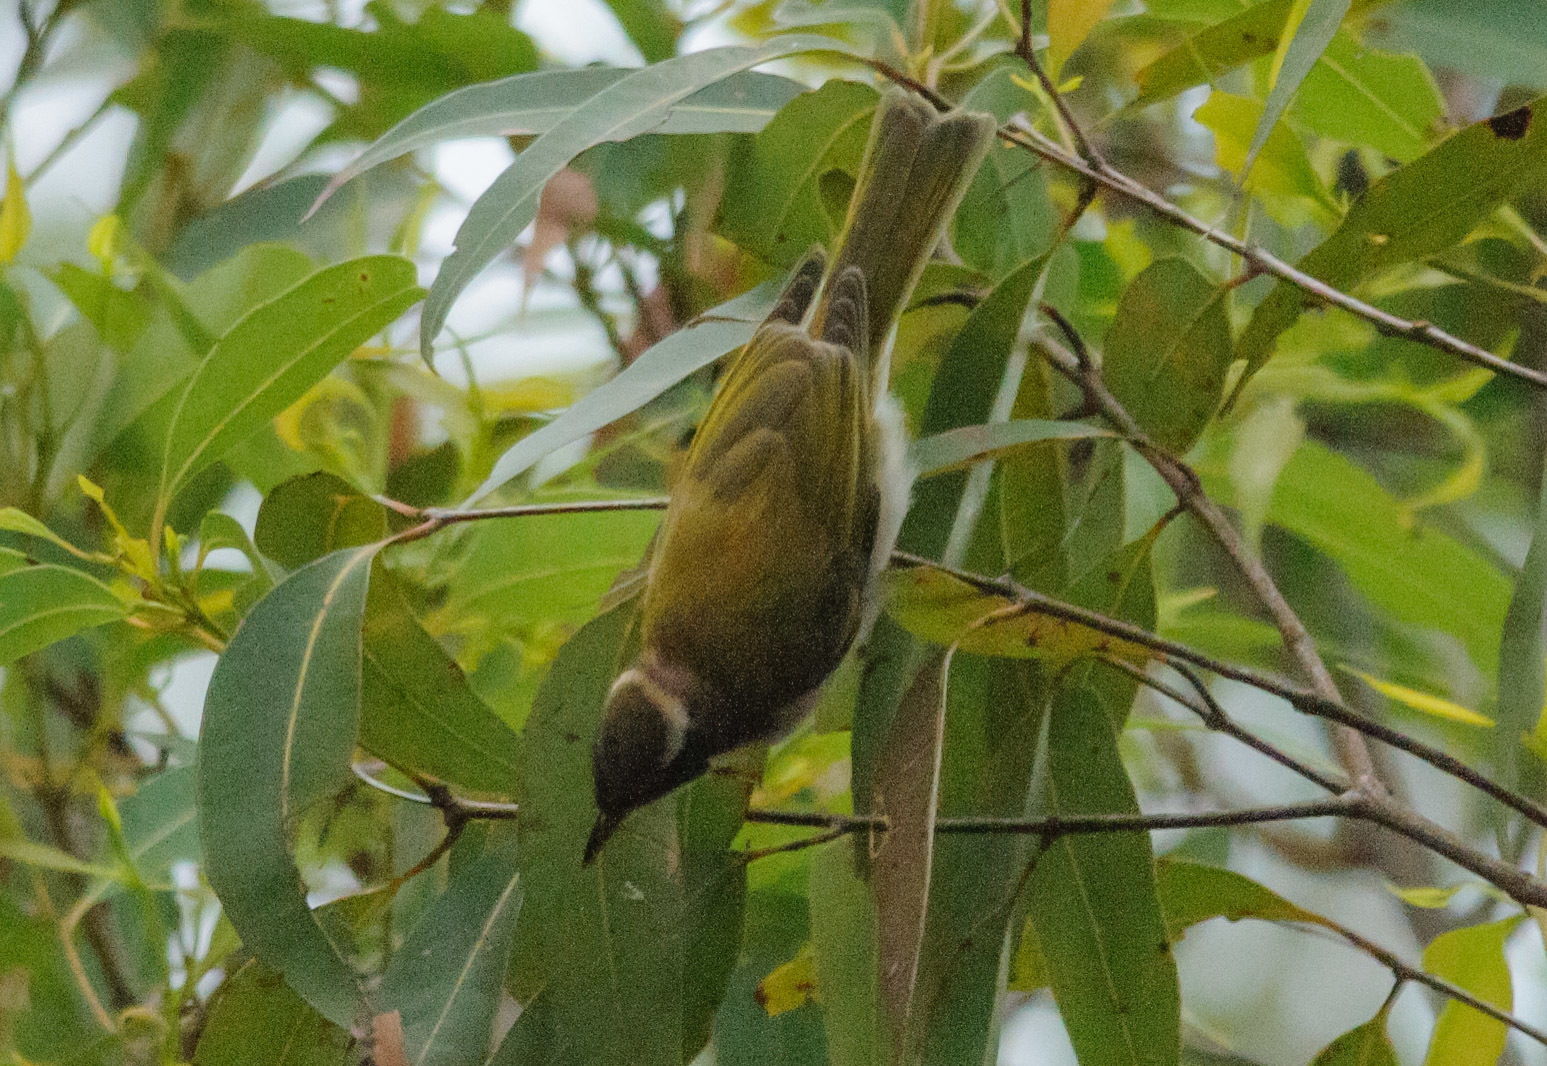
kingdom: Animalia
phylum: Chordata
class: Aves
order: Passeriformes
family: Meliphagidae
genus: Melithreptus
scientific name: Melithreptus albogularis
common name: White-throated honeyeater
